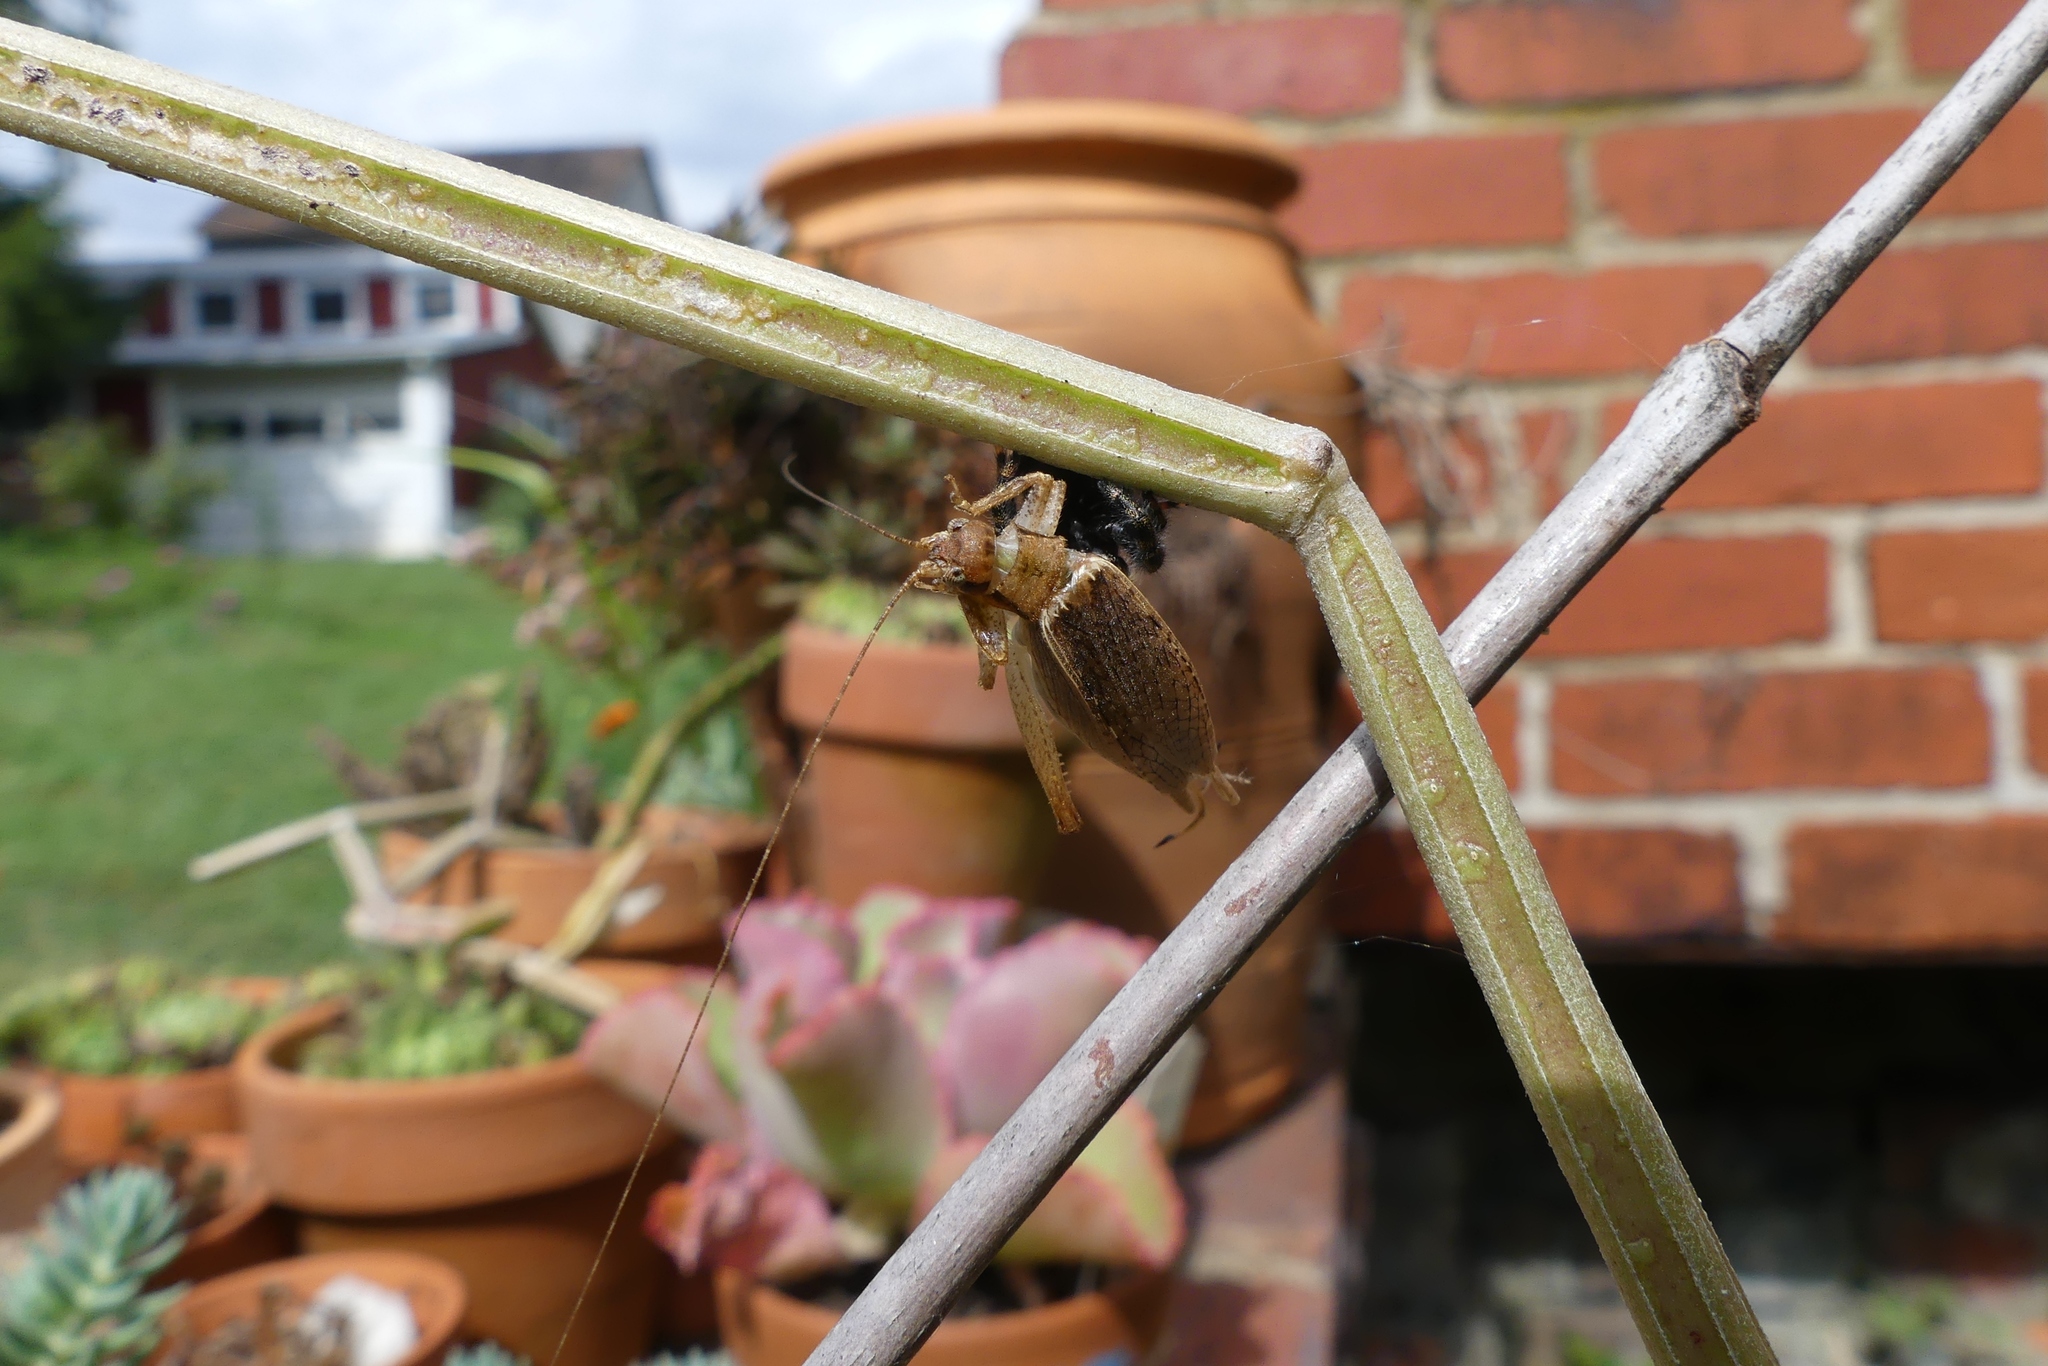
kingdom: Animalia
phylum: Arthropoda
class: Insecta
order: Orthoptera
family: Gryllidae
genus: Hapithus
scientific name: Hapithus saltator
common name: Jumping bush cricket
